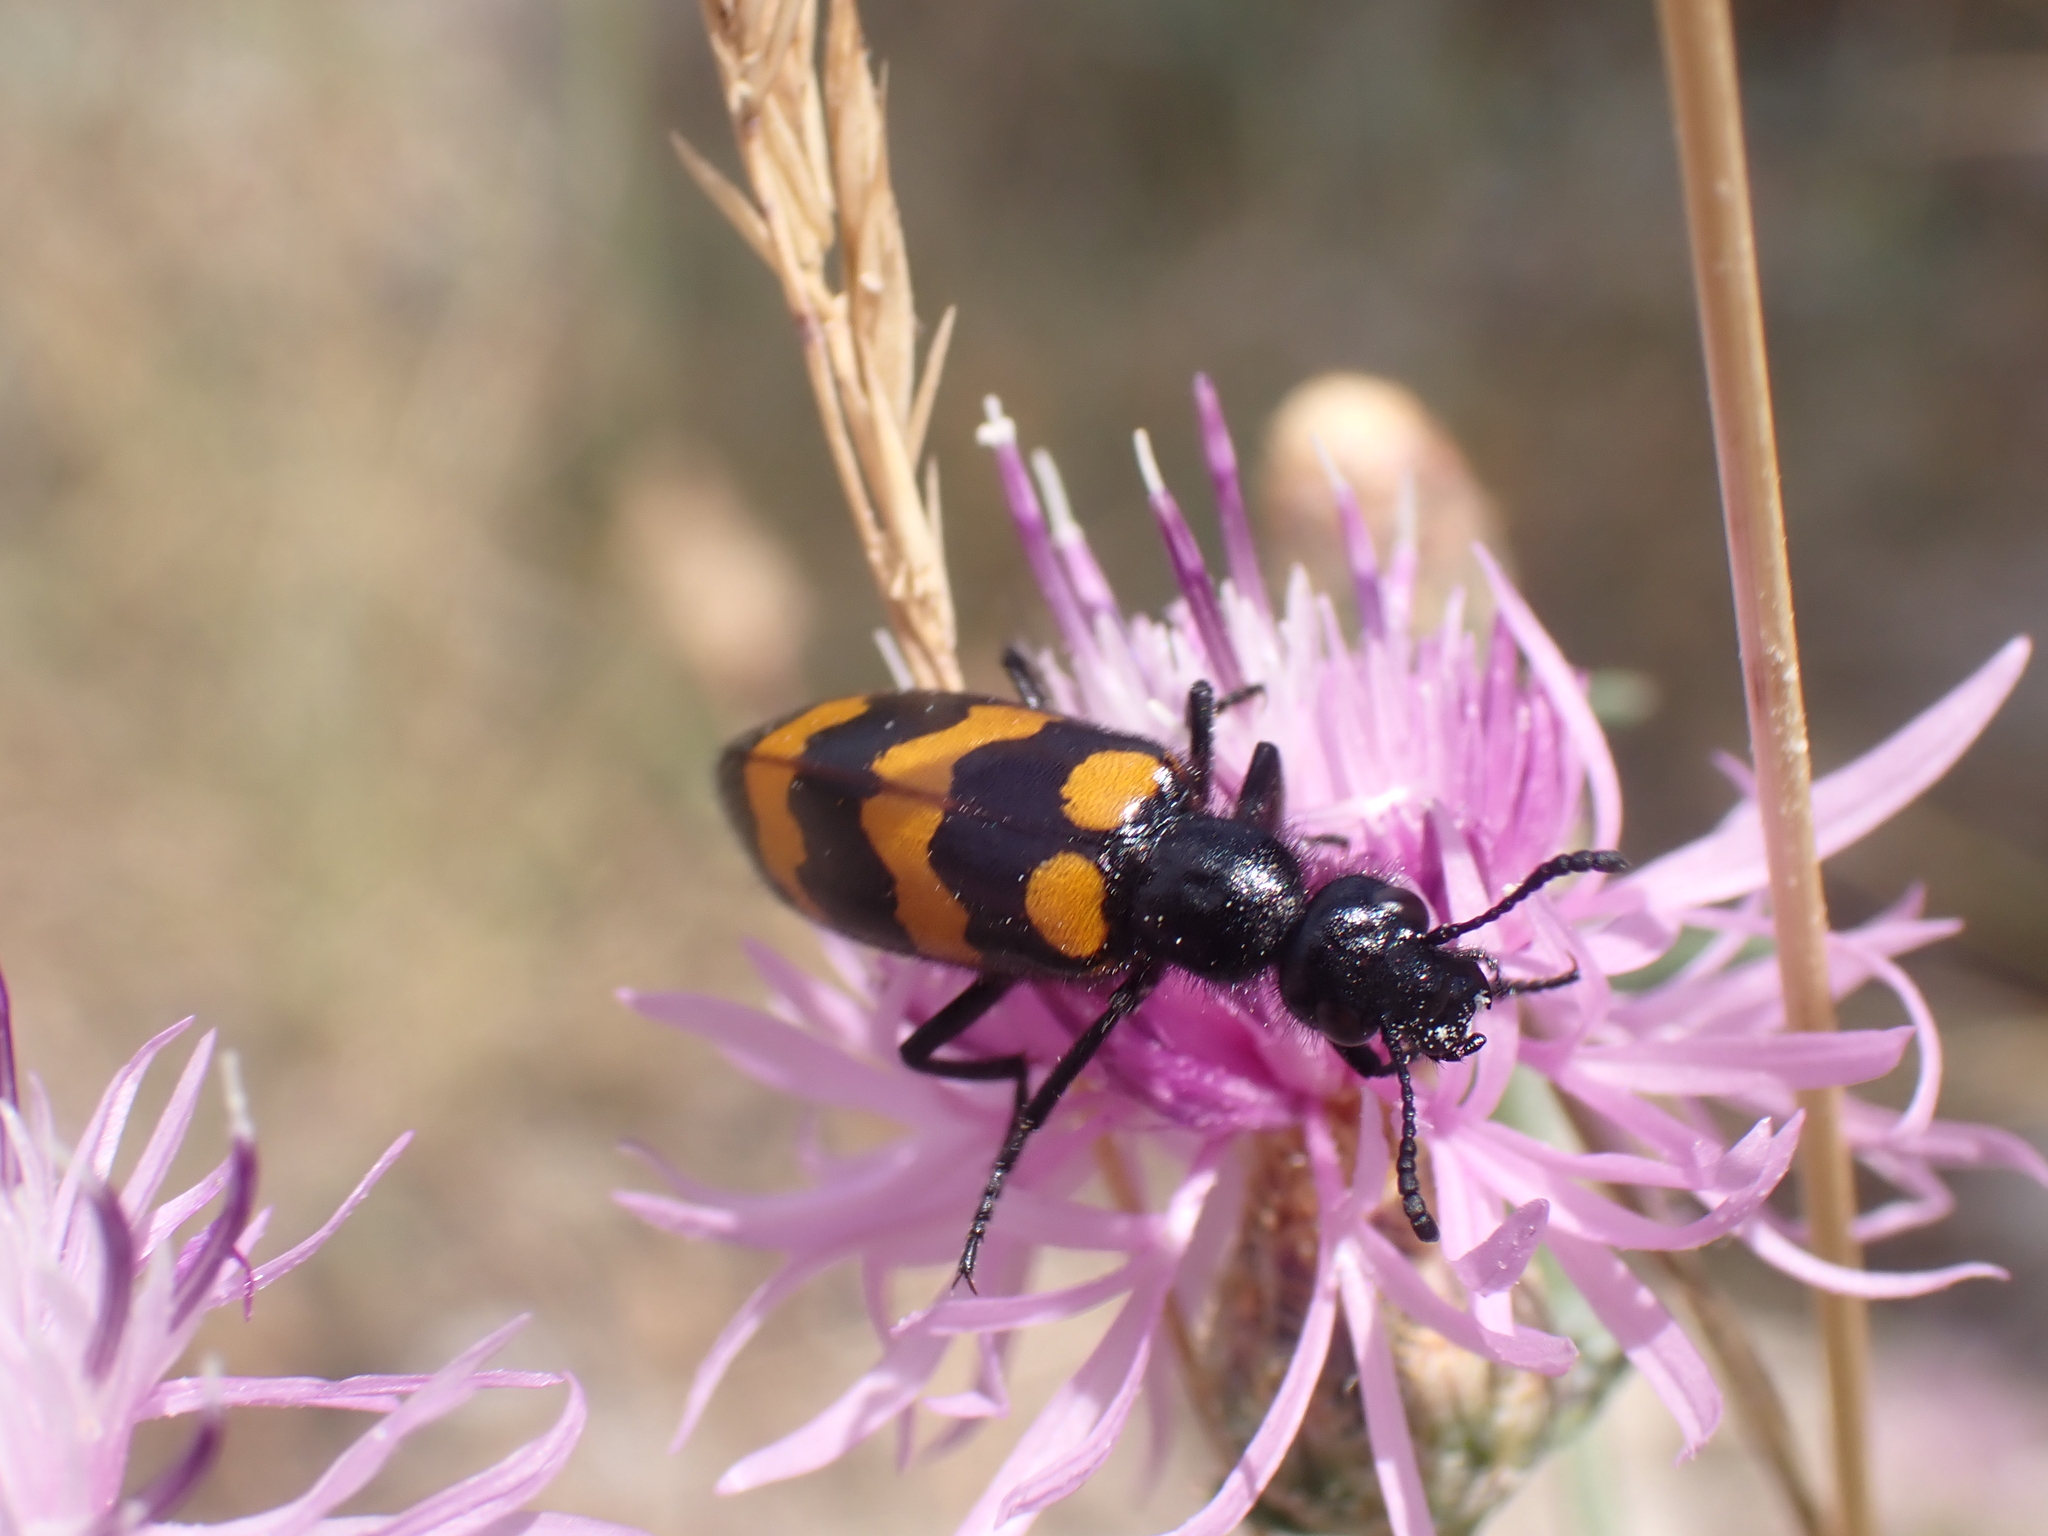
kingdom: Animalia
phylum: Arthropoda
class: Insecta
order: Coleoptera
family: Meloidae
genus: Mylabris
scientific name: Mylabris variabilis
